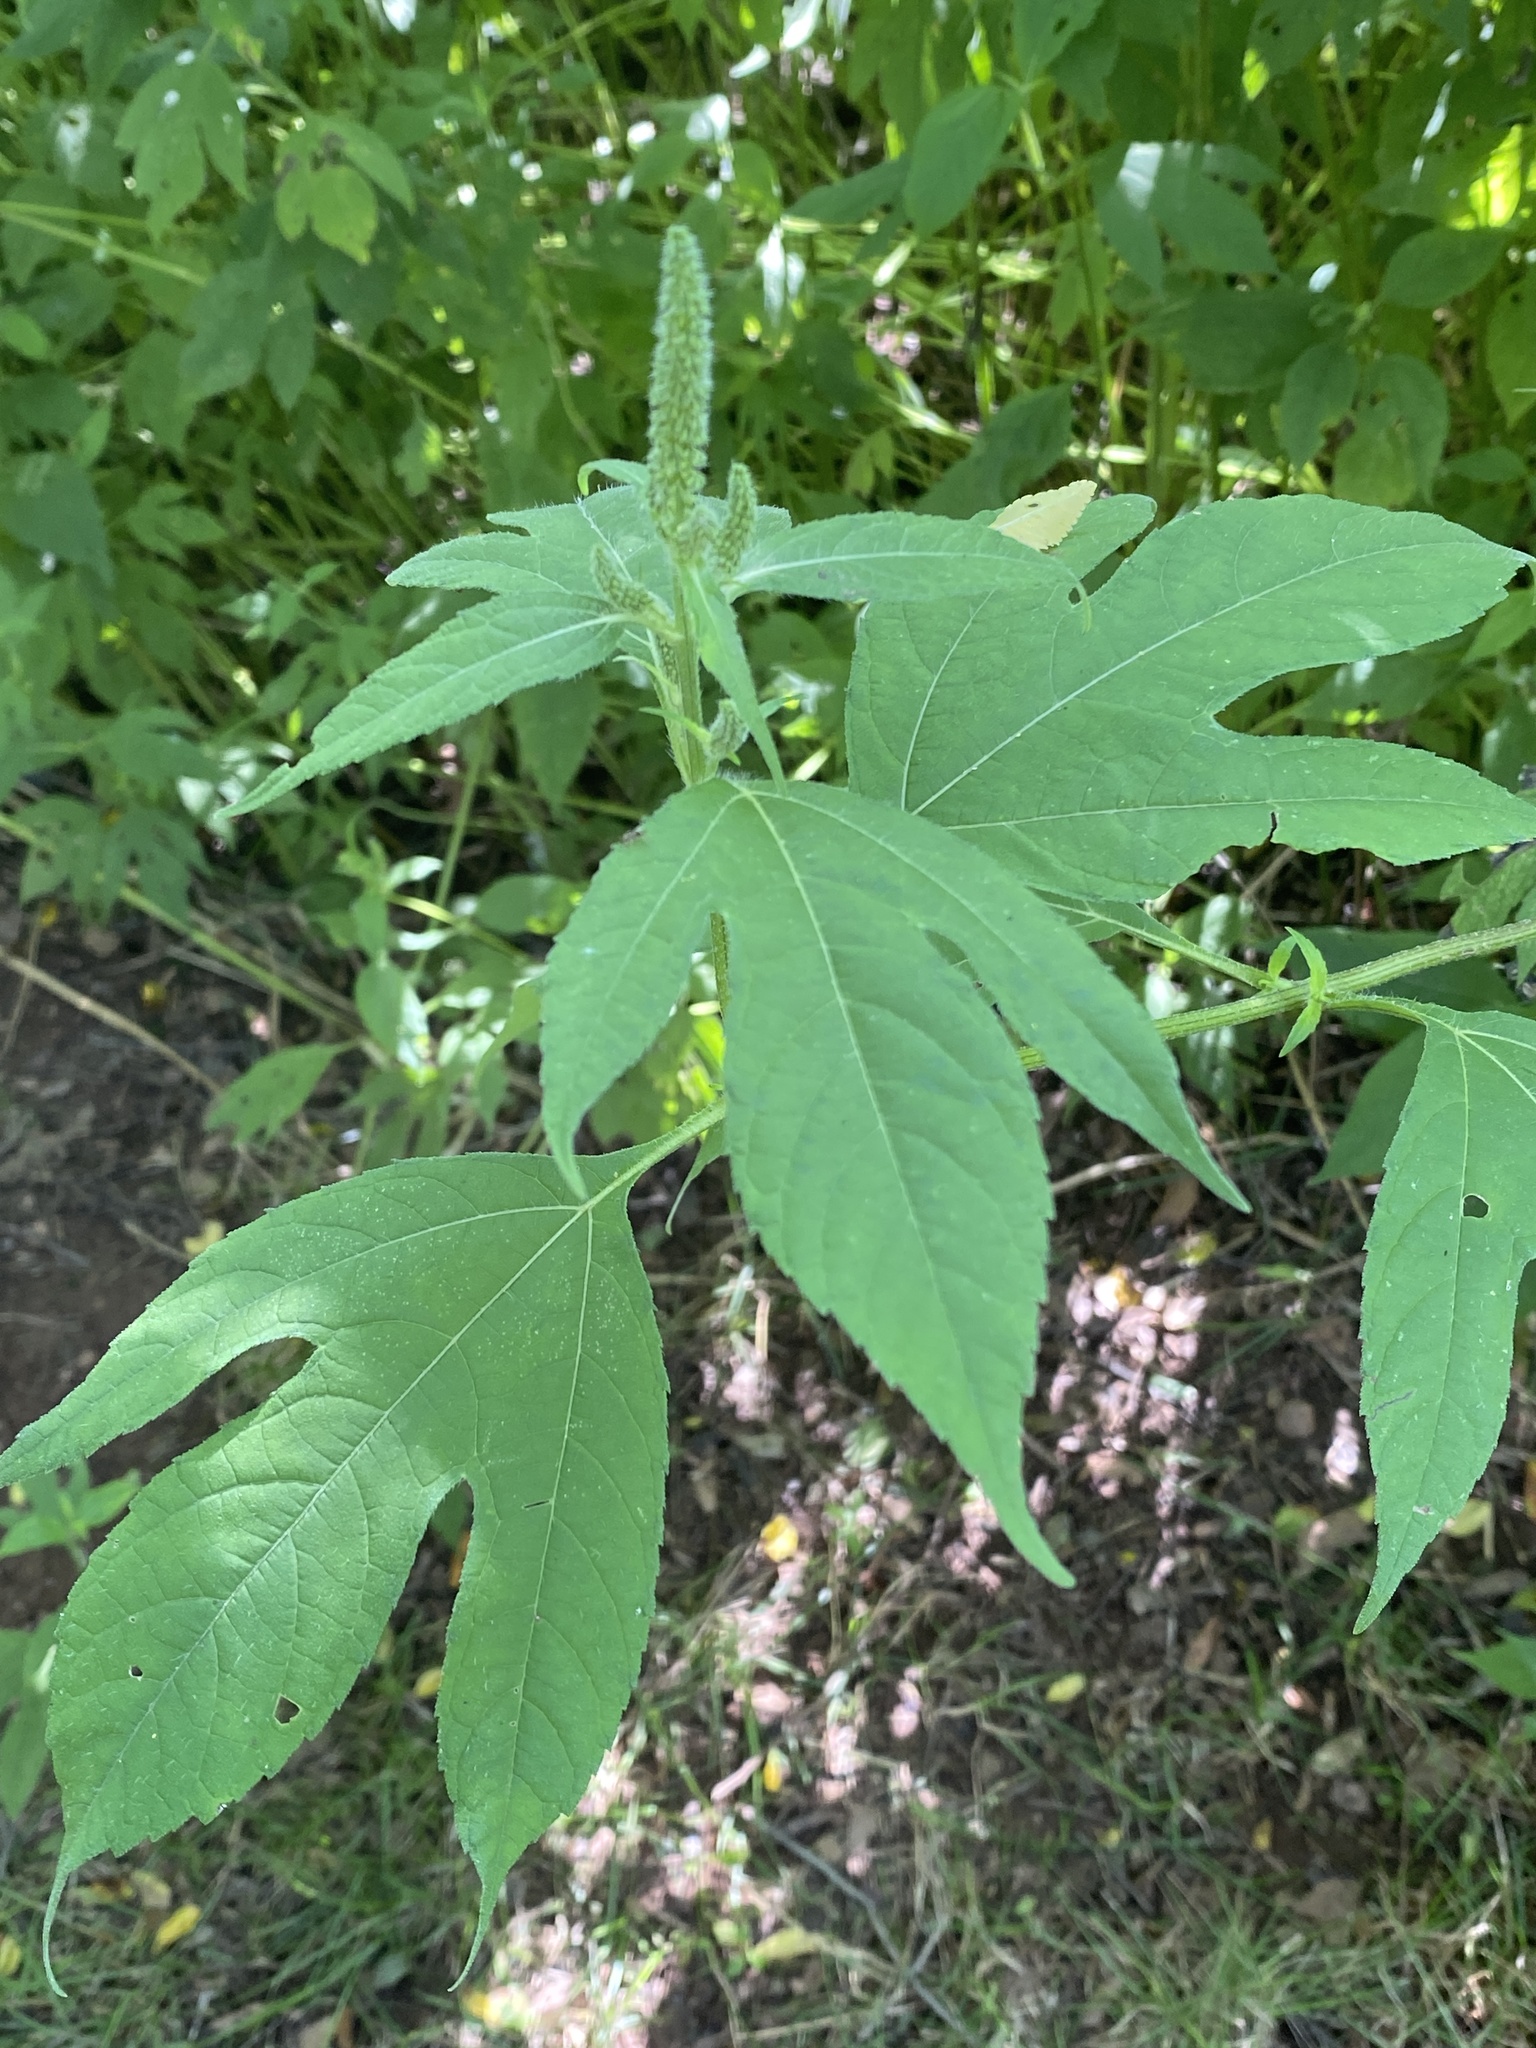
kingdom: Plantae
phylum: Tracheophyta
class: Magnoliopsida
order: Asterales
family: Asteraceae
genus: Ambrosia
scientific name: Ambrosia trifida
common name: Giant ragweed
